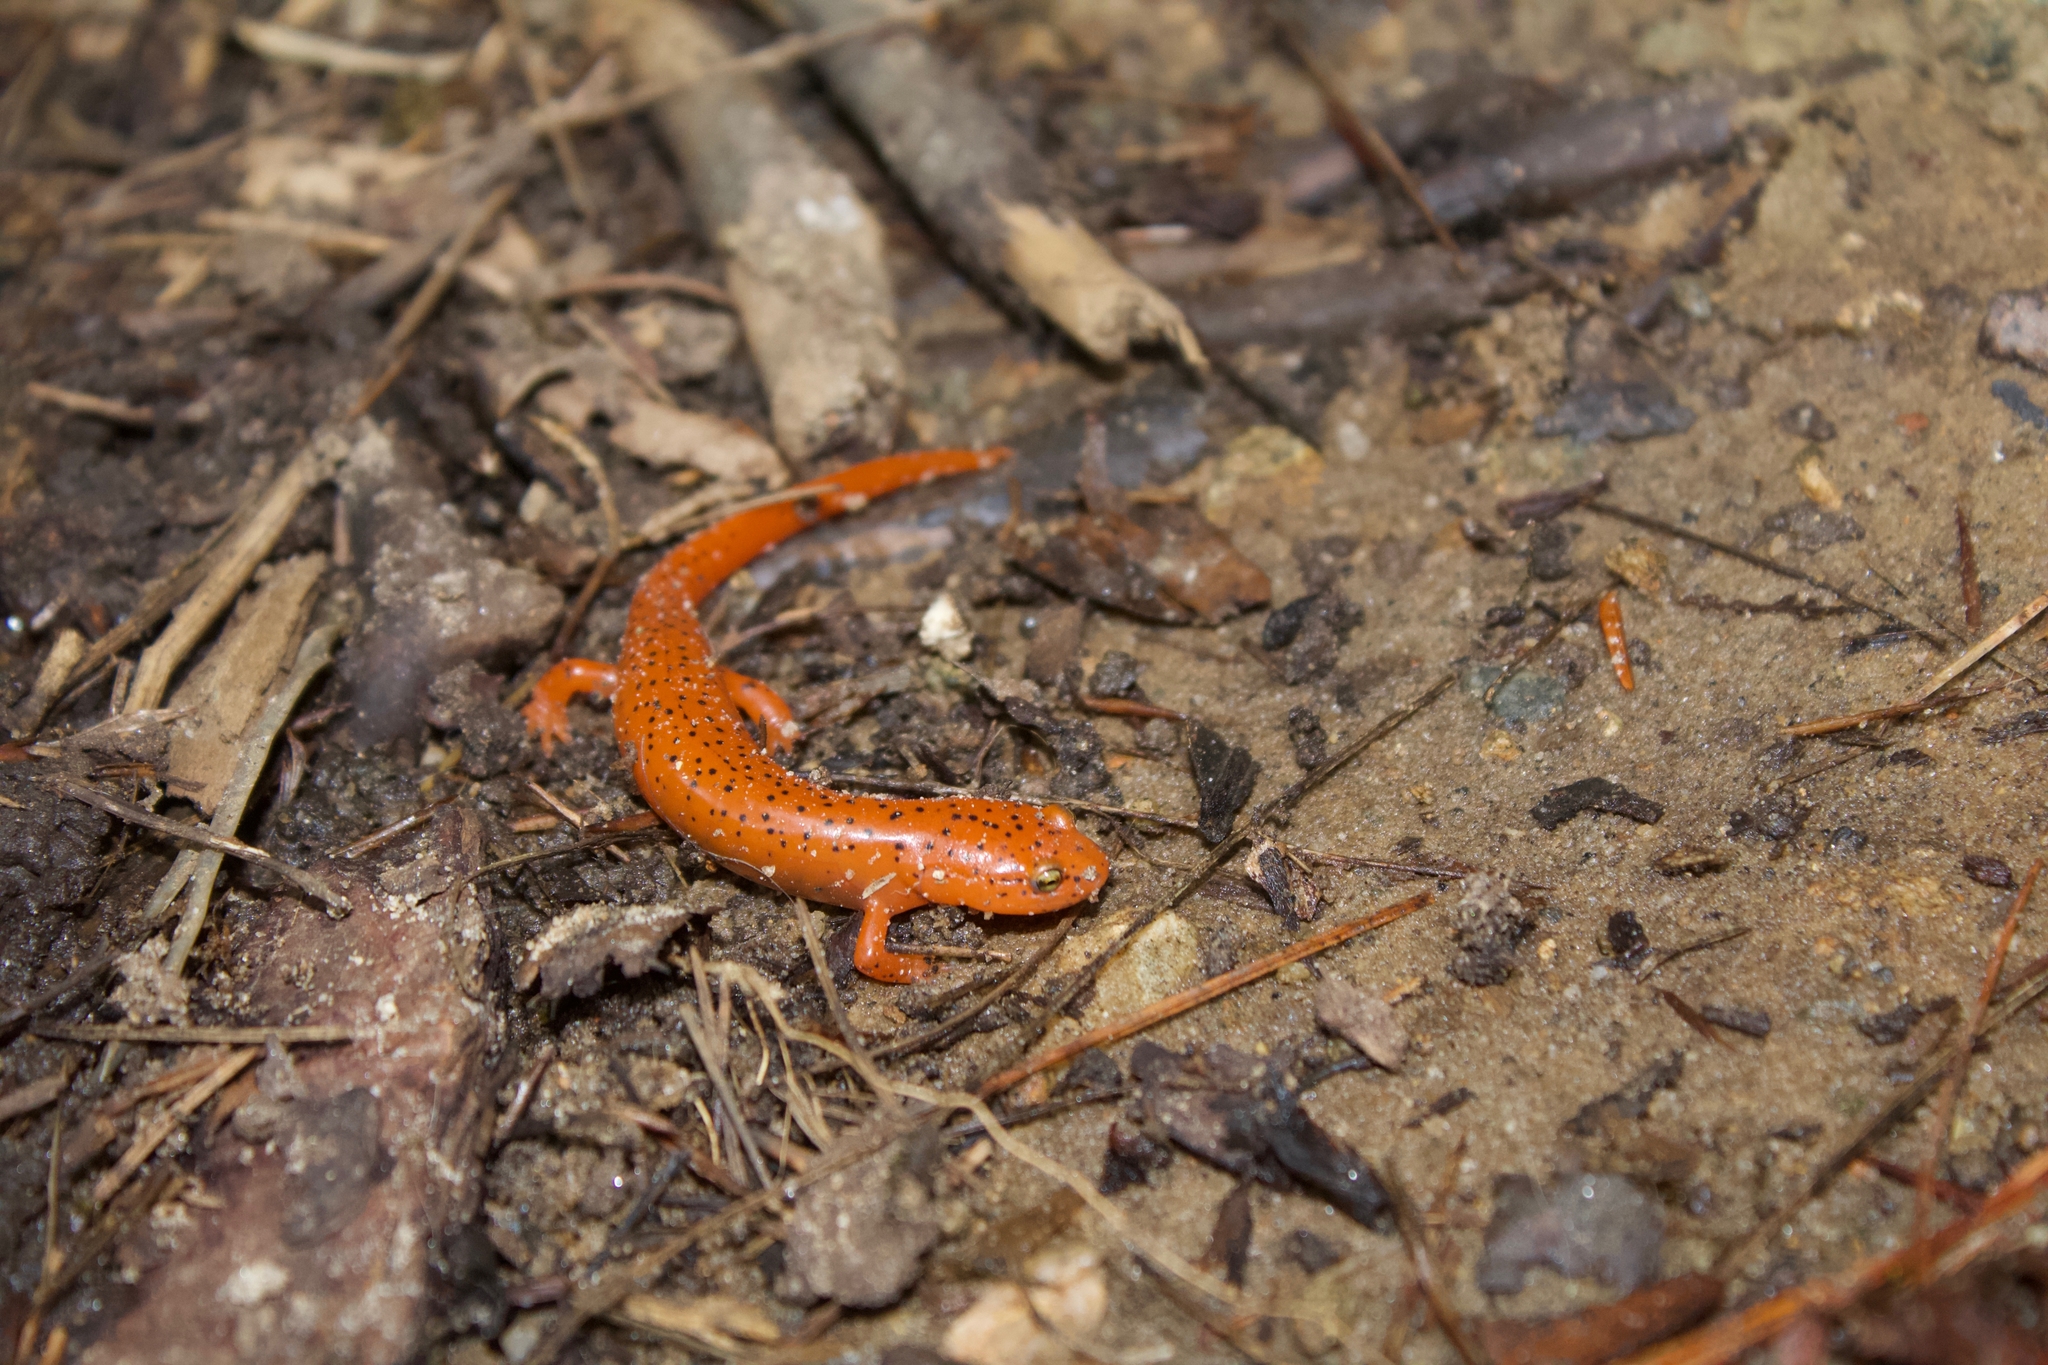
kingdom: Animalia
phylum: Chordata
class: Amphibia
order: Caudata
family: Plethodontidae
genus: Pseudotriton
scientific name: Pseudotriton ruber
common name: Red salamander
